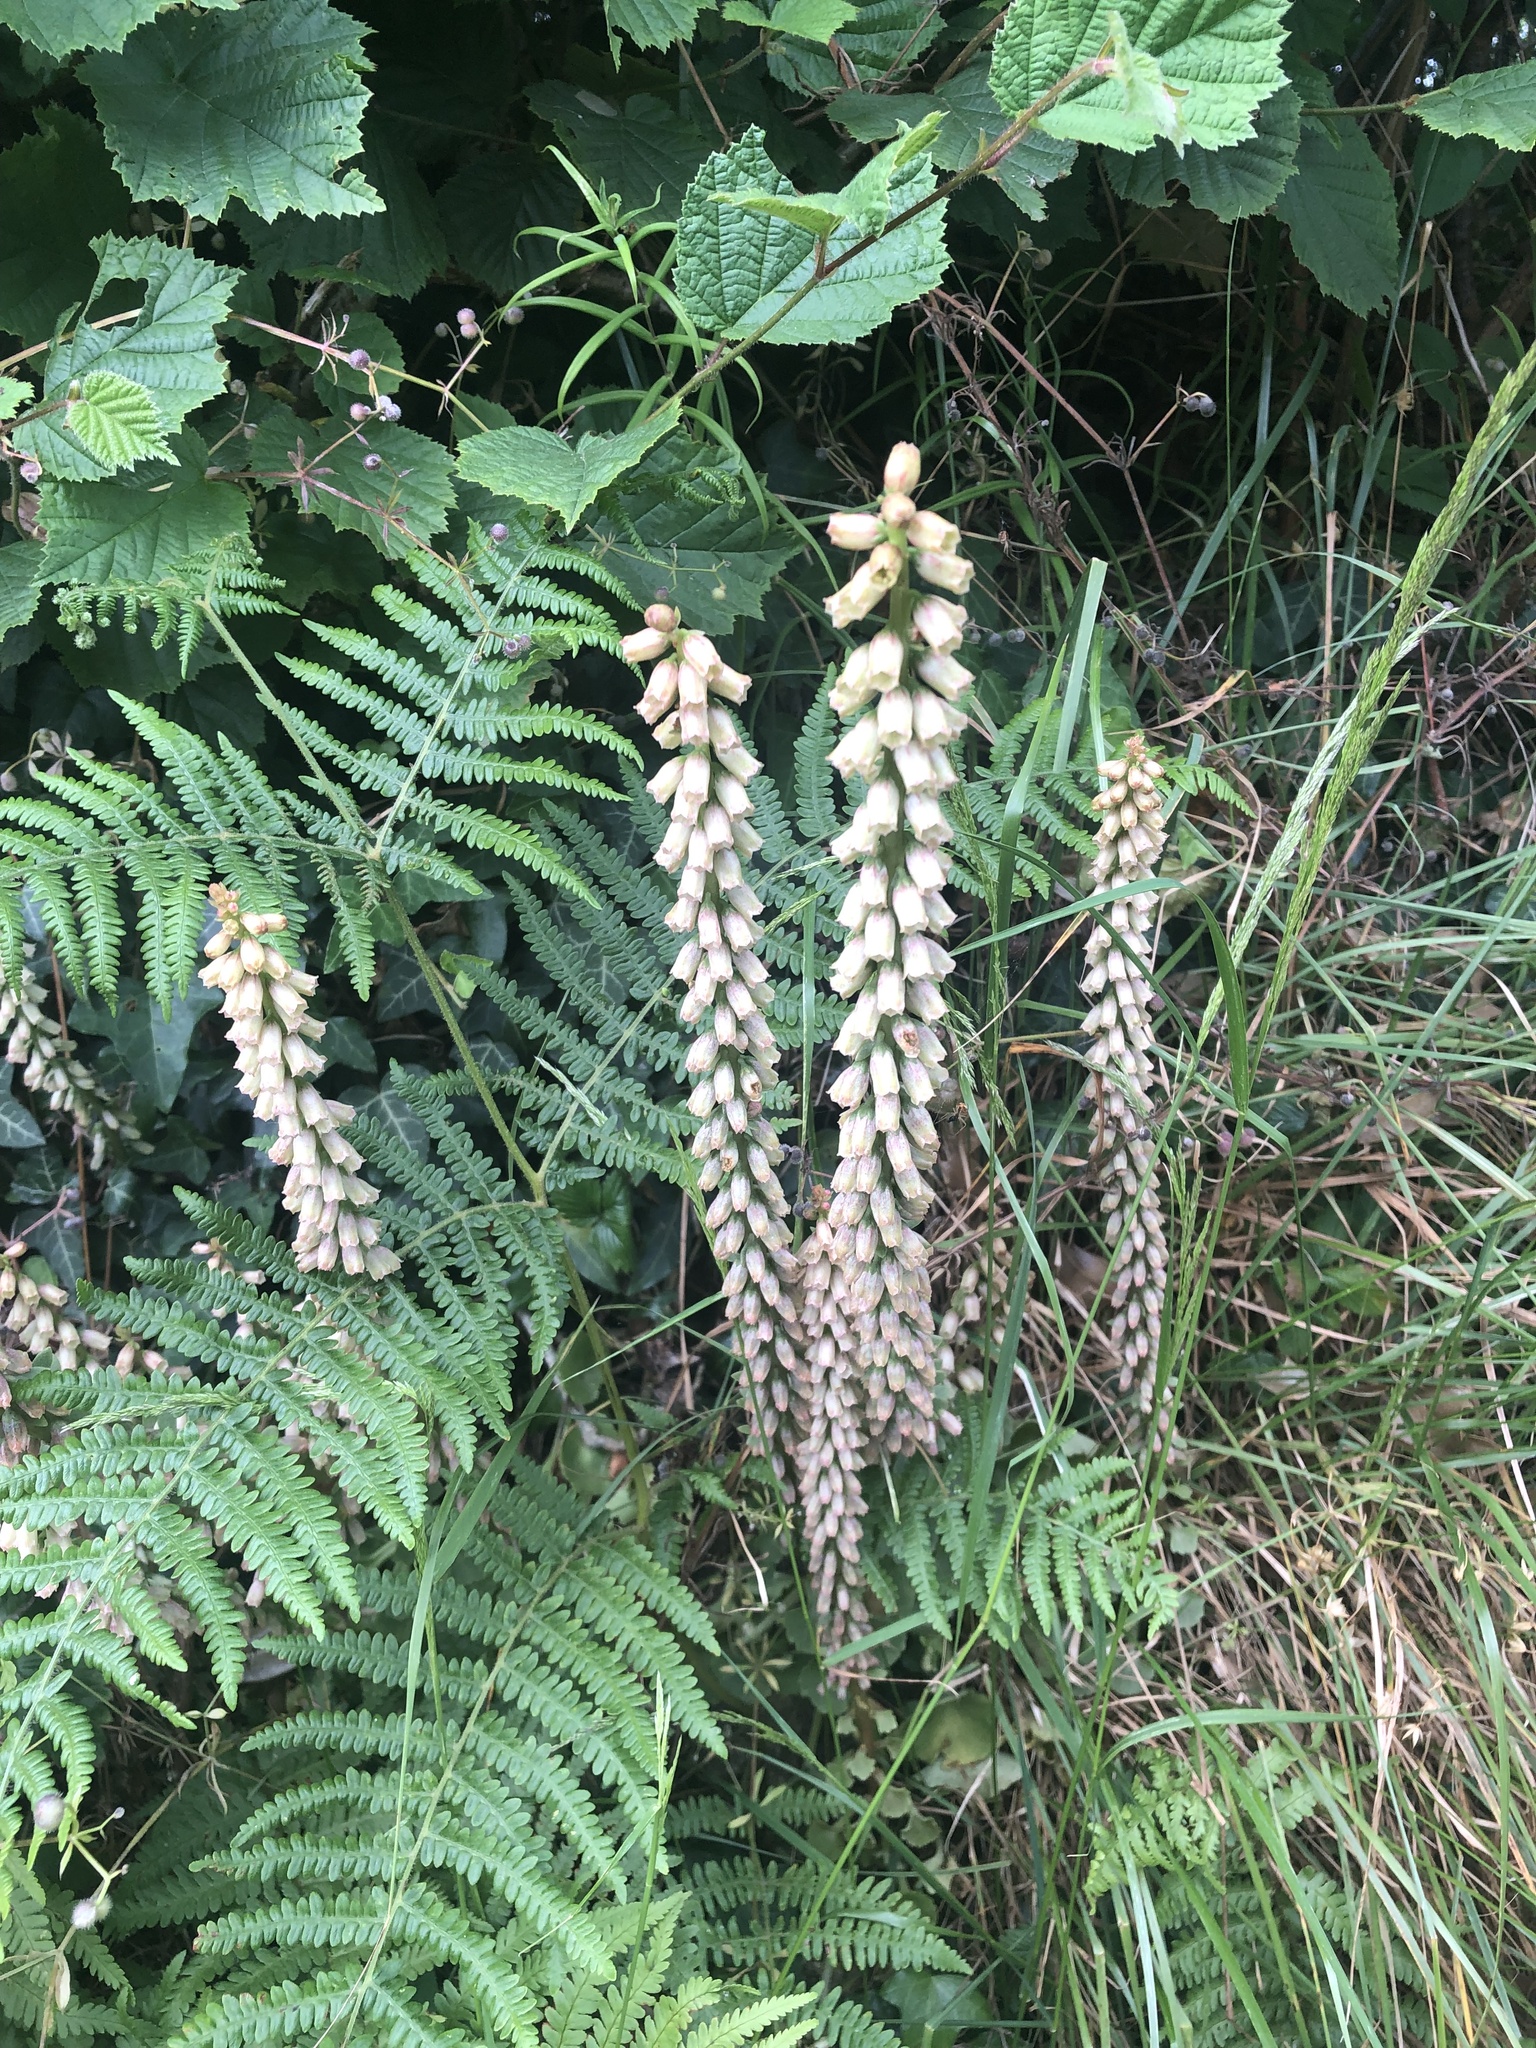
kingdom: Plantae
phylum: Tracheophyta
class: Magnoliopsida
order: Saxifragales
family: Crassulaceae
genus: Umbilicus
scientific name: Umbilicus rupestris
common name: Navelwort
